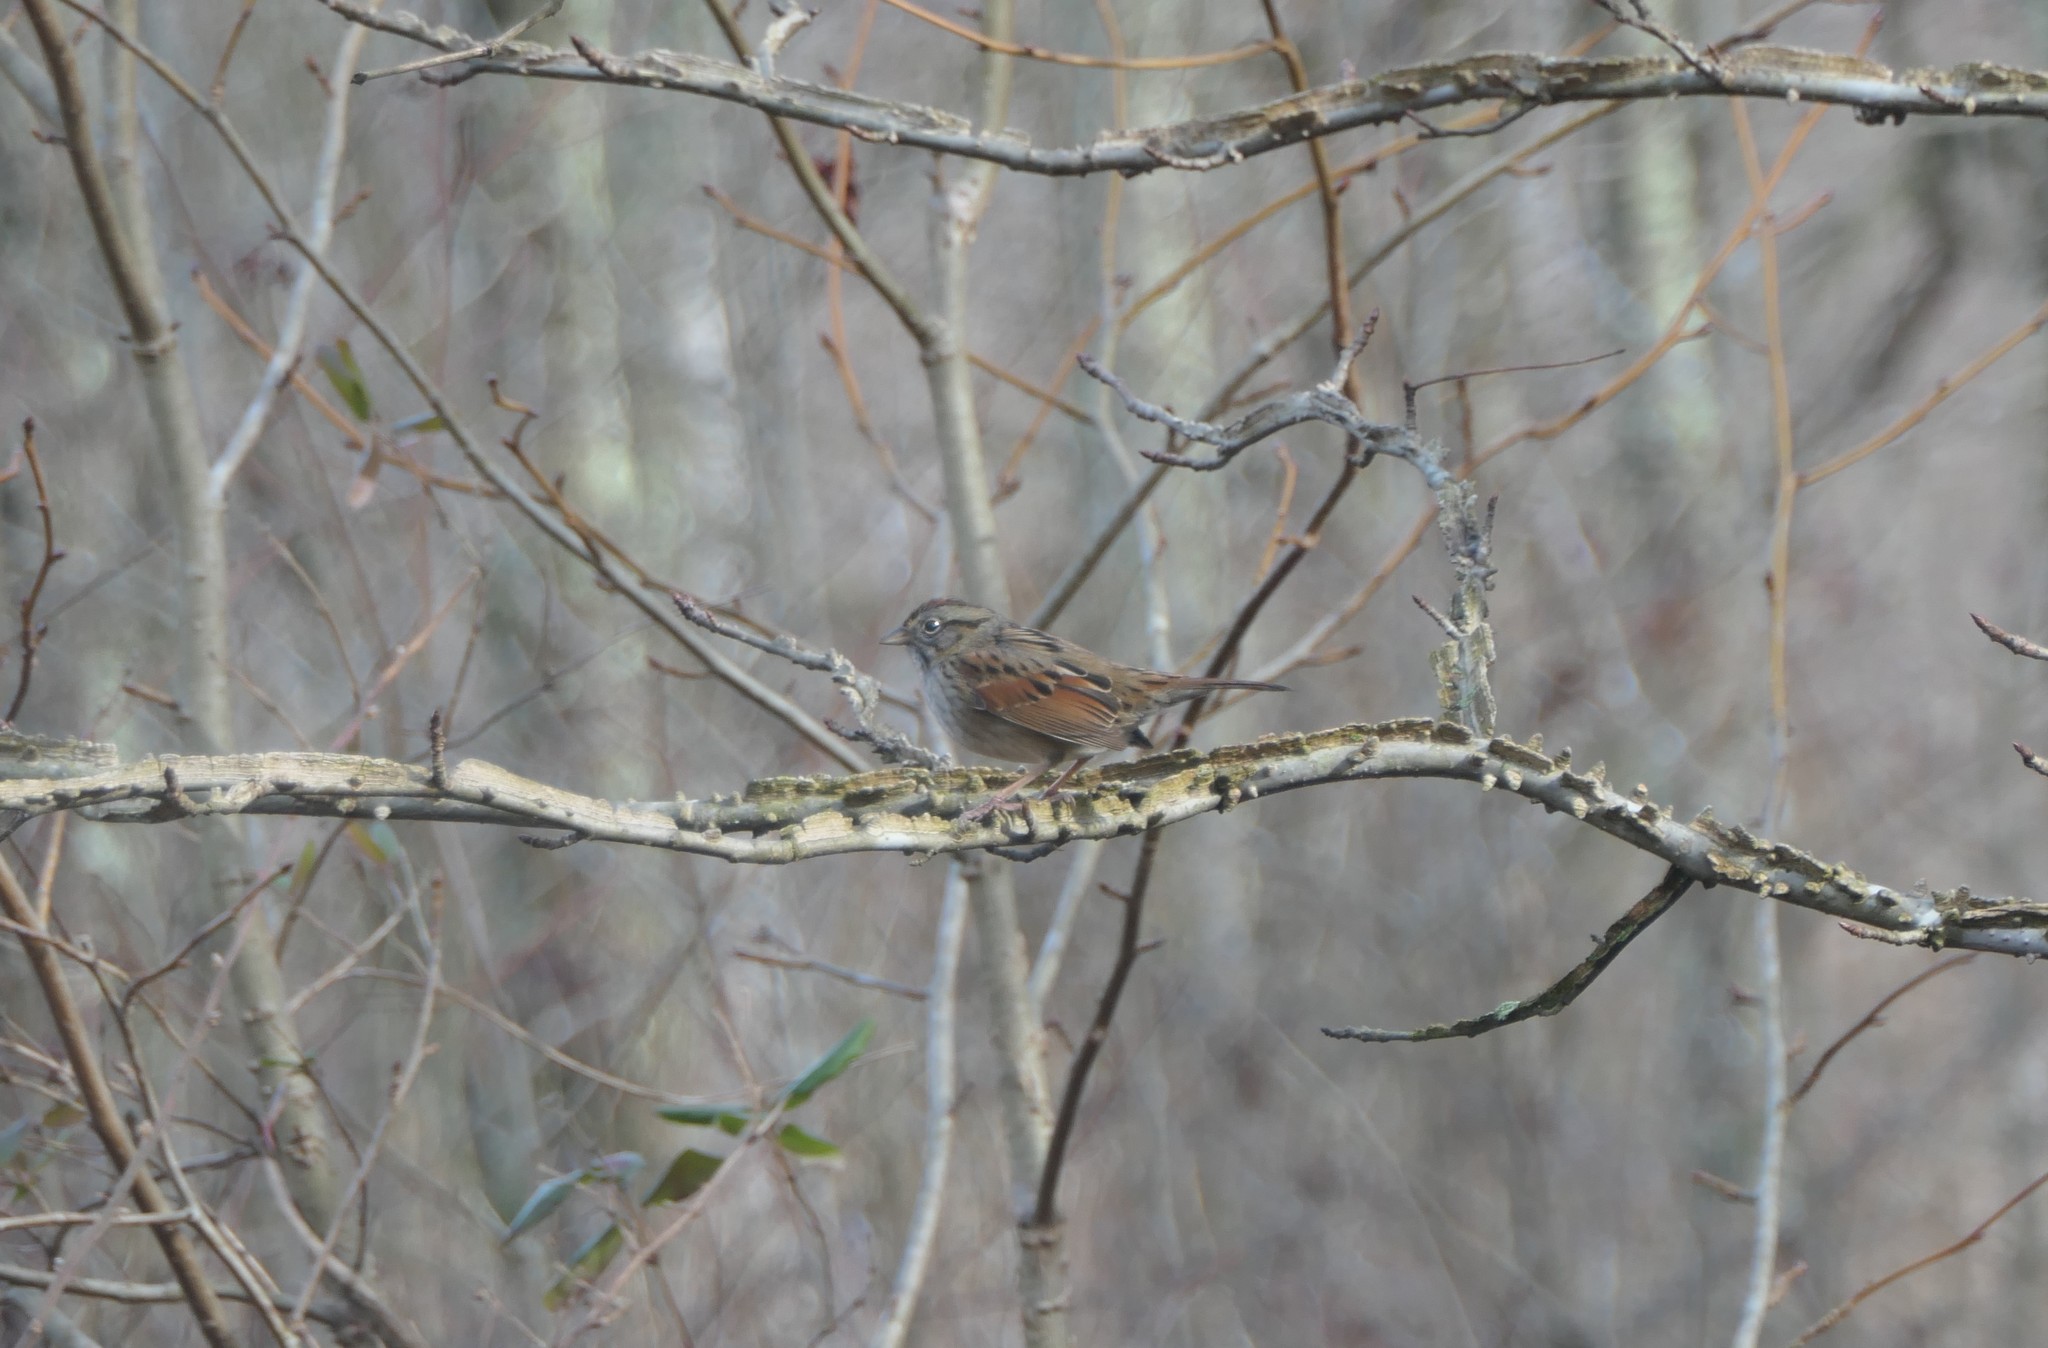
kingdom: Animalia
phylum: Chordata
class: Aves
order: Passeriformes
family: Passerellidae
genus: Melospiza
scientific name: Melospiza georgiana
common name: Swamp sparrow
